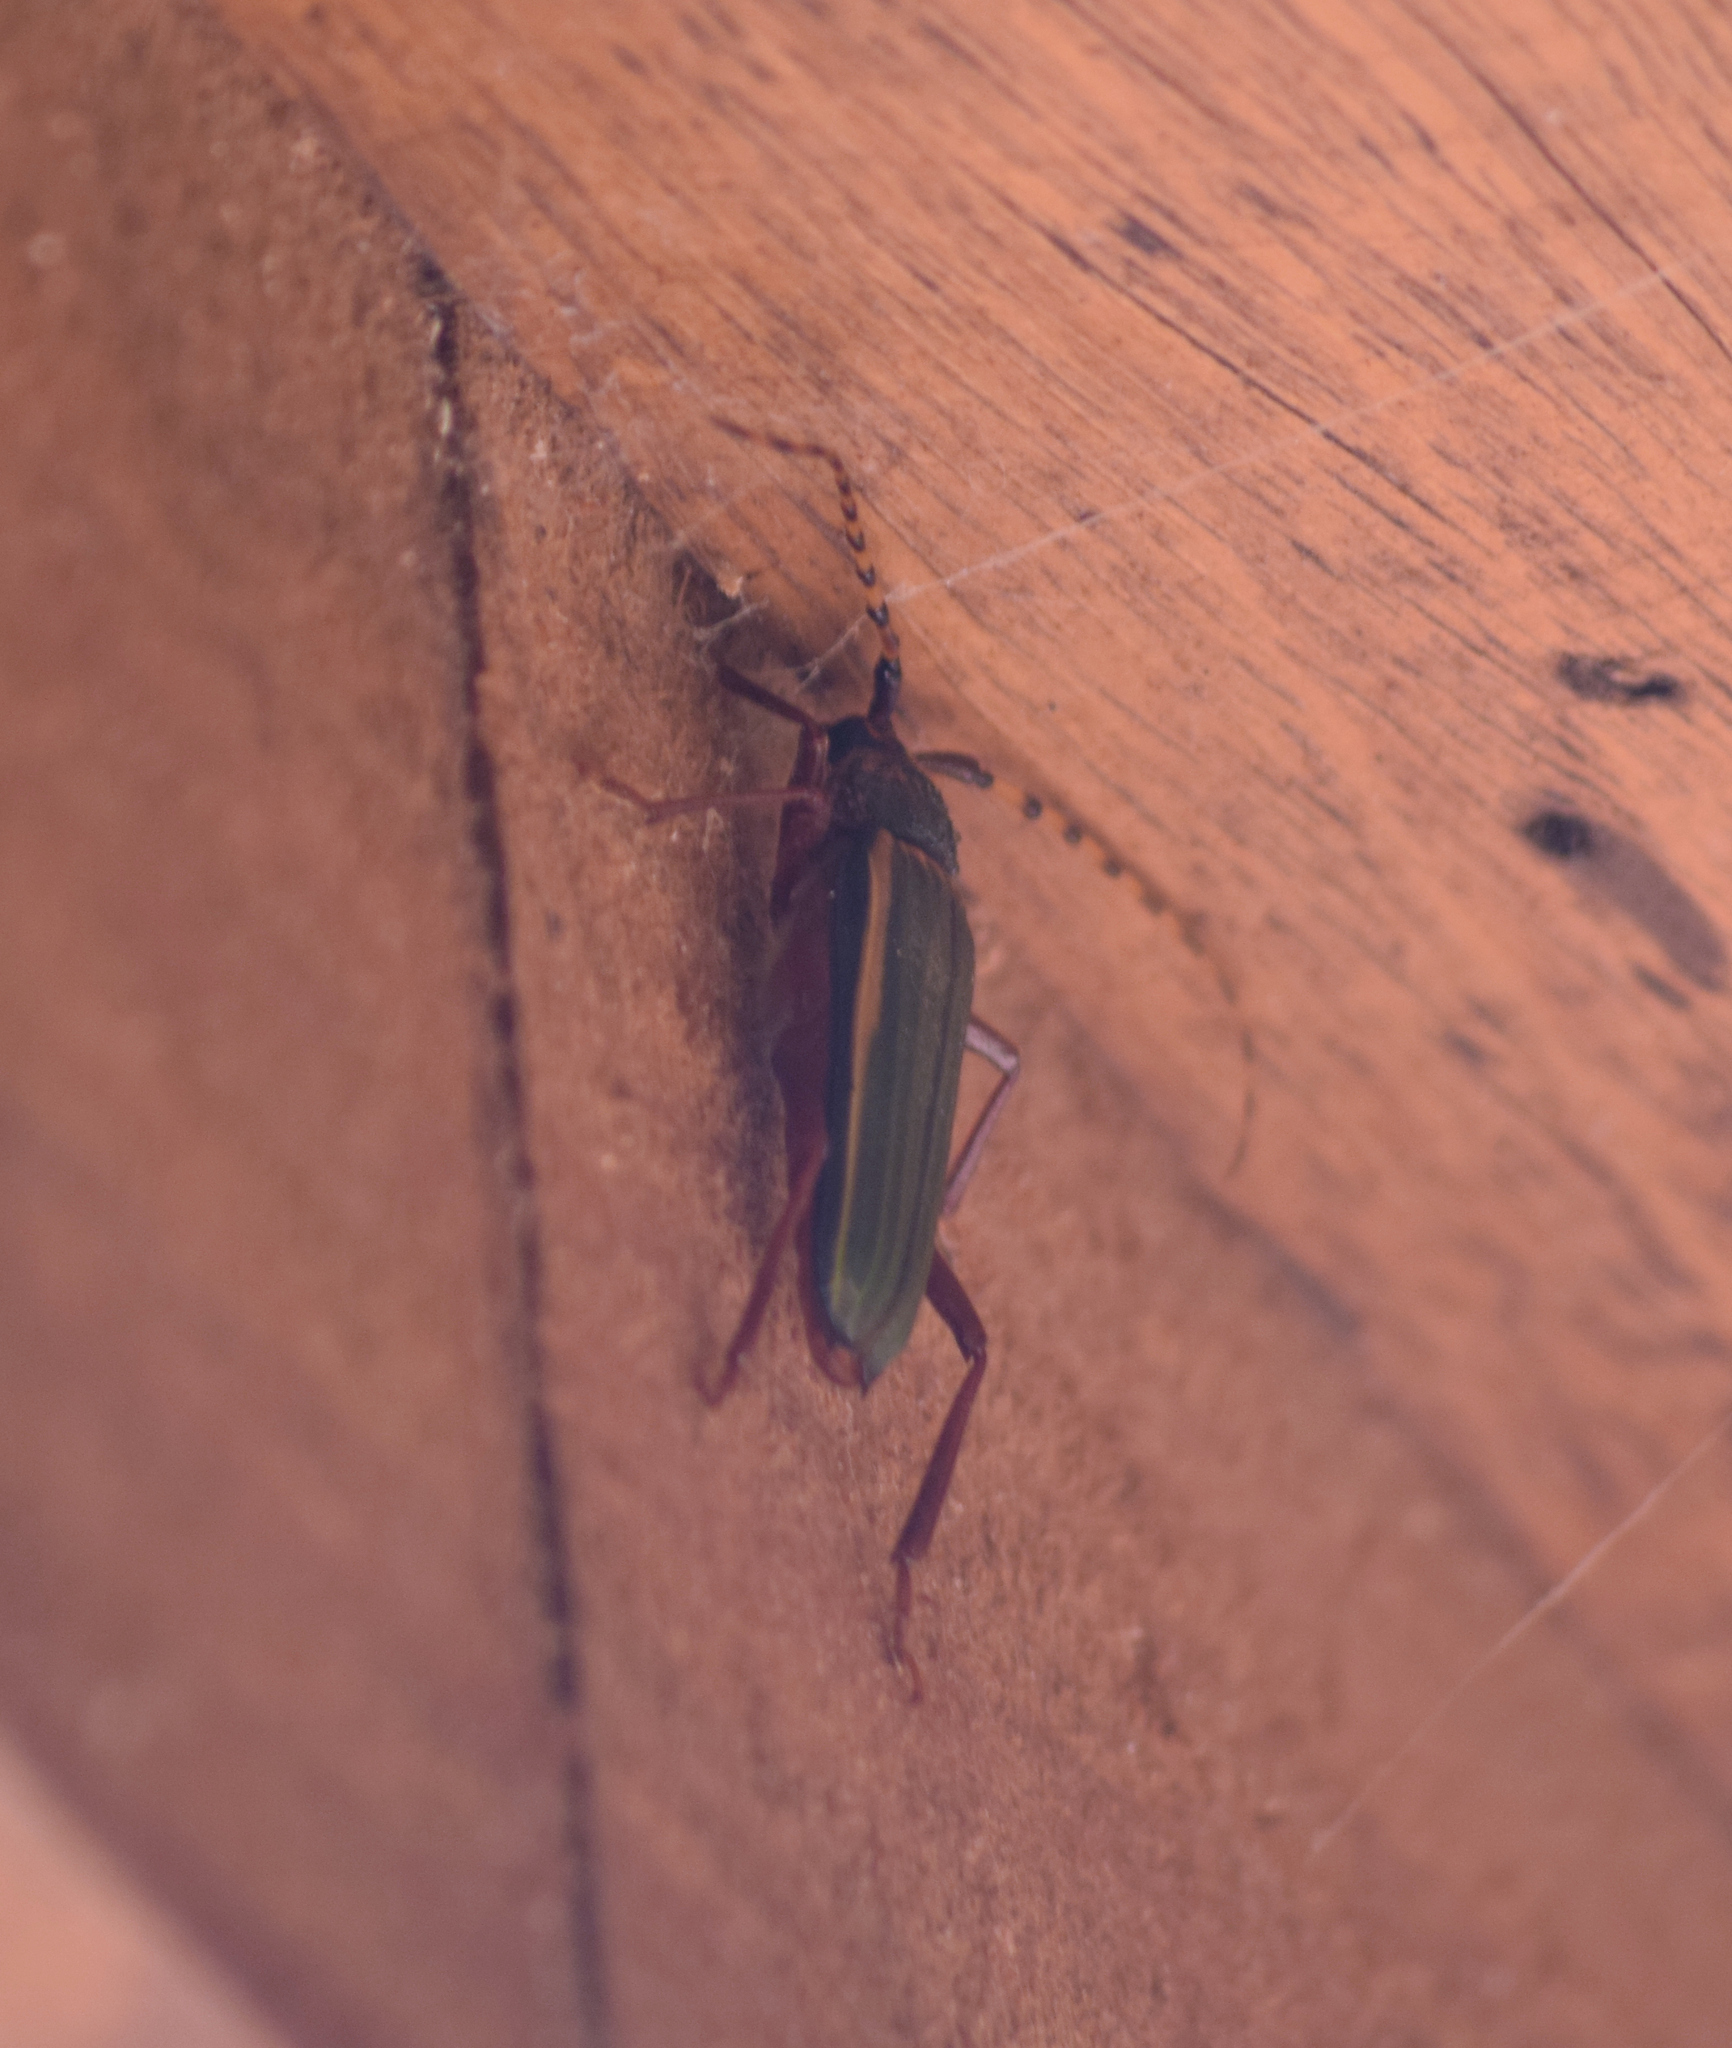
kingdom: Animalia
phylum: Arthropoda
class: Insecta
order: Coleoptera
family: Cerambycidae
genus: Chlorida
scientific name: Chlorida costata
